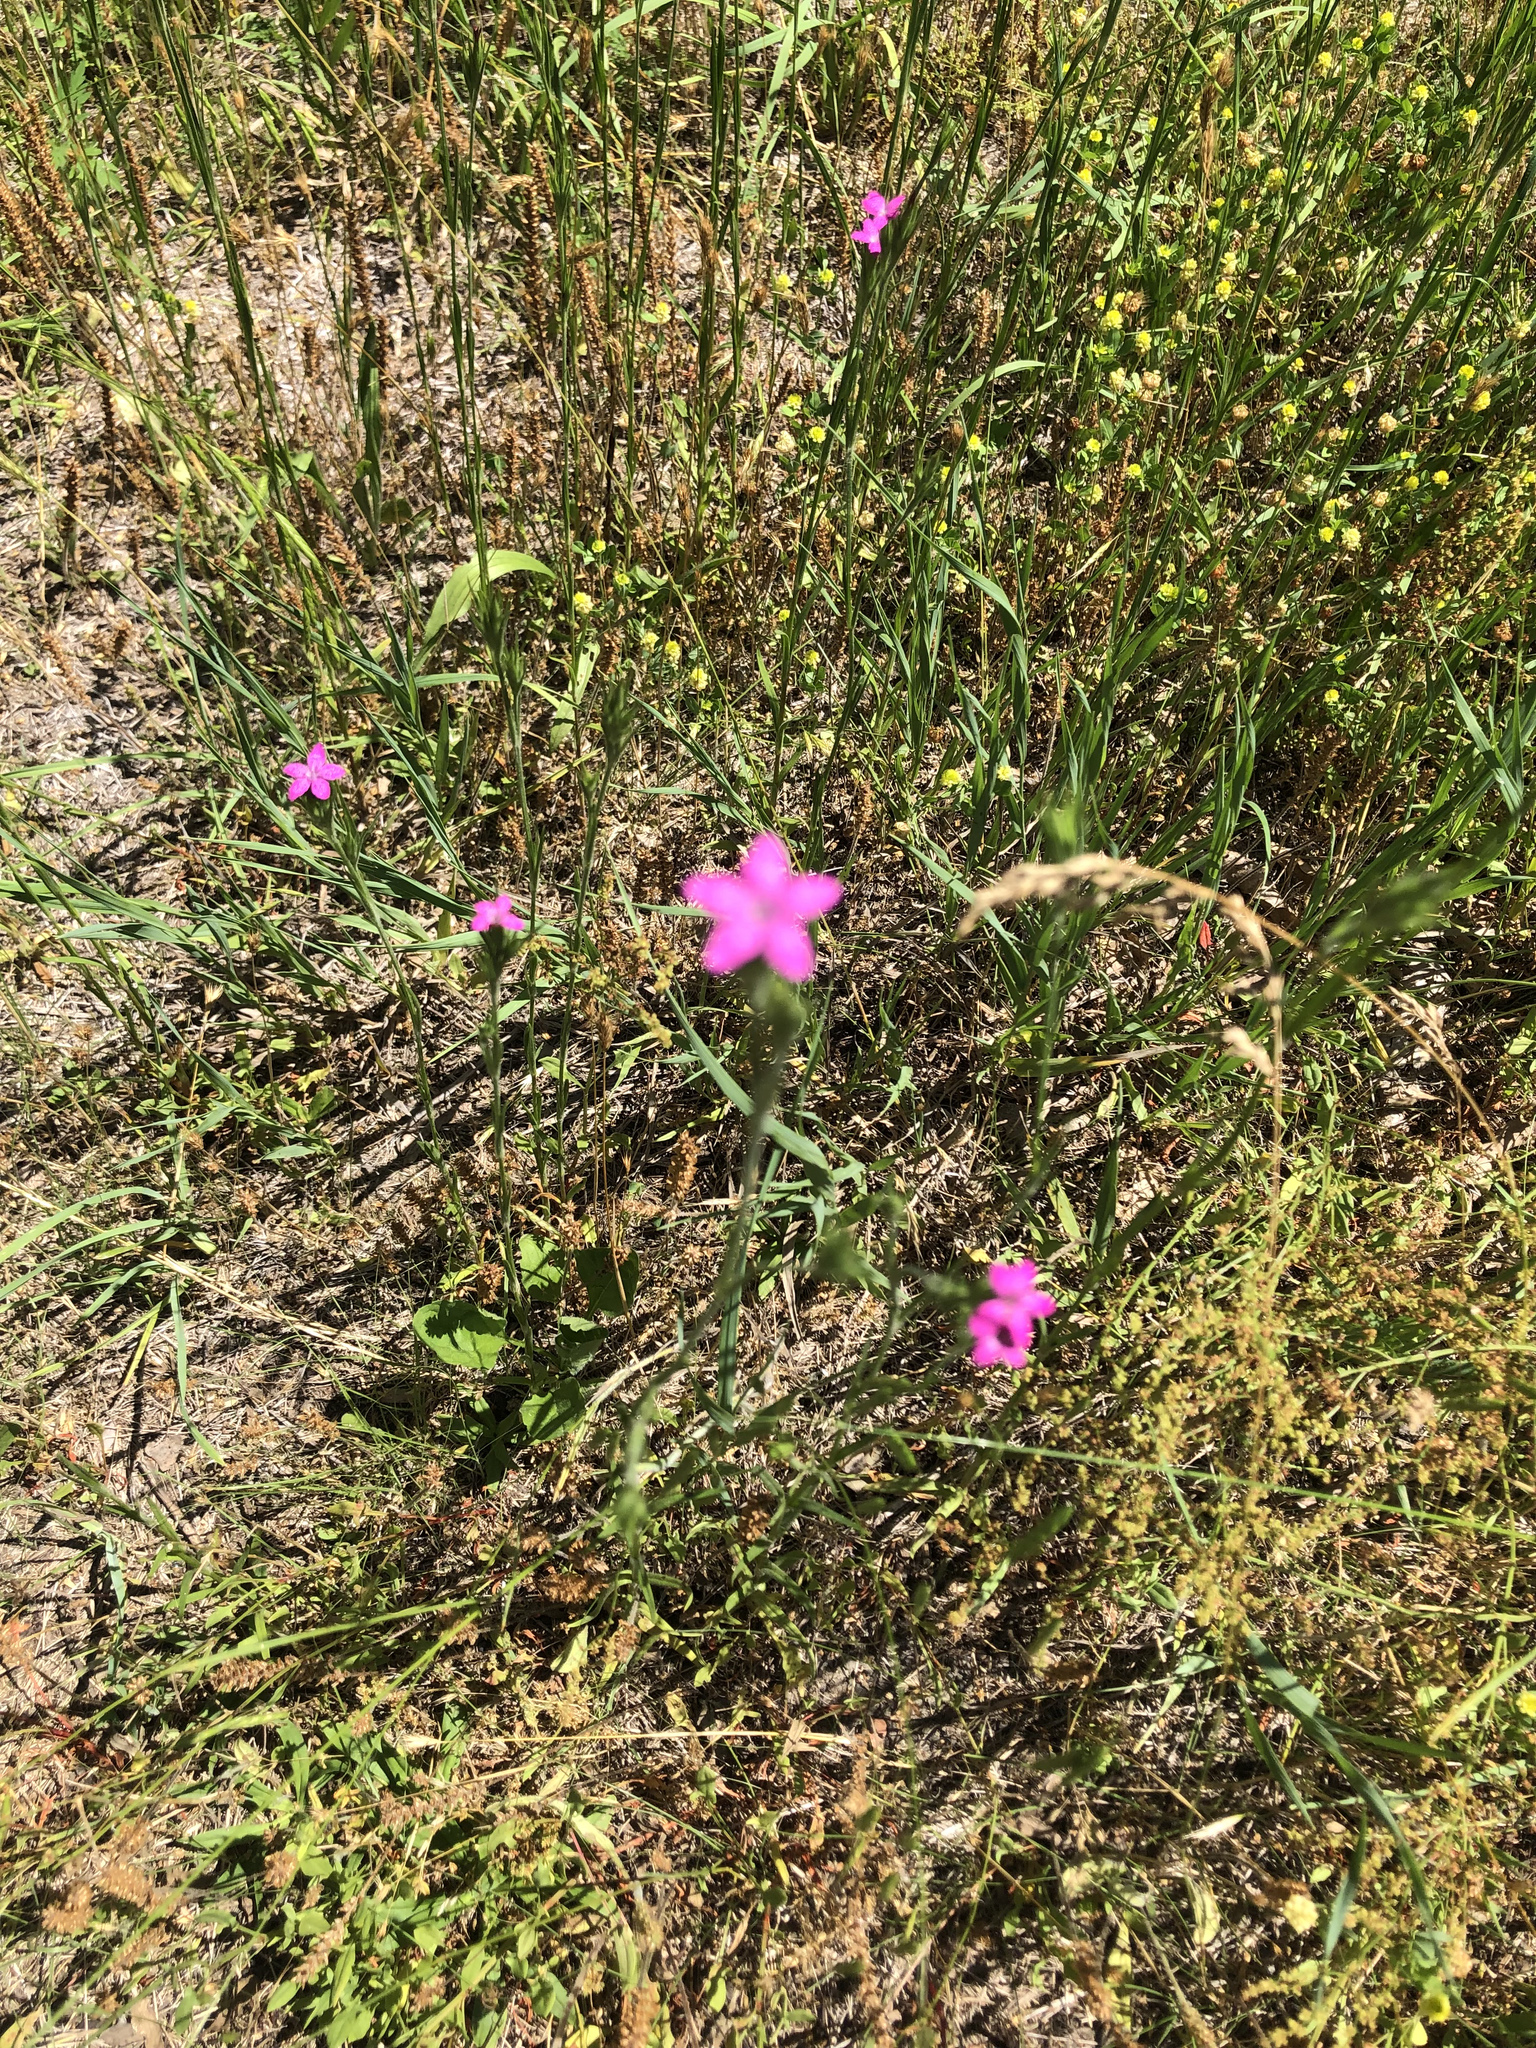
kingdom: Plantae
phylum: Tracheophyta
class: Magnoliopsida
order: Caryophyllales
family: Caryophyllaceae
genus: Dianthus
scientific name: Dianthus armeria
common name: Deptford pink
